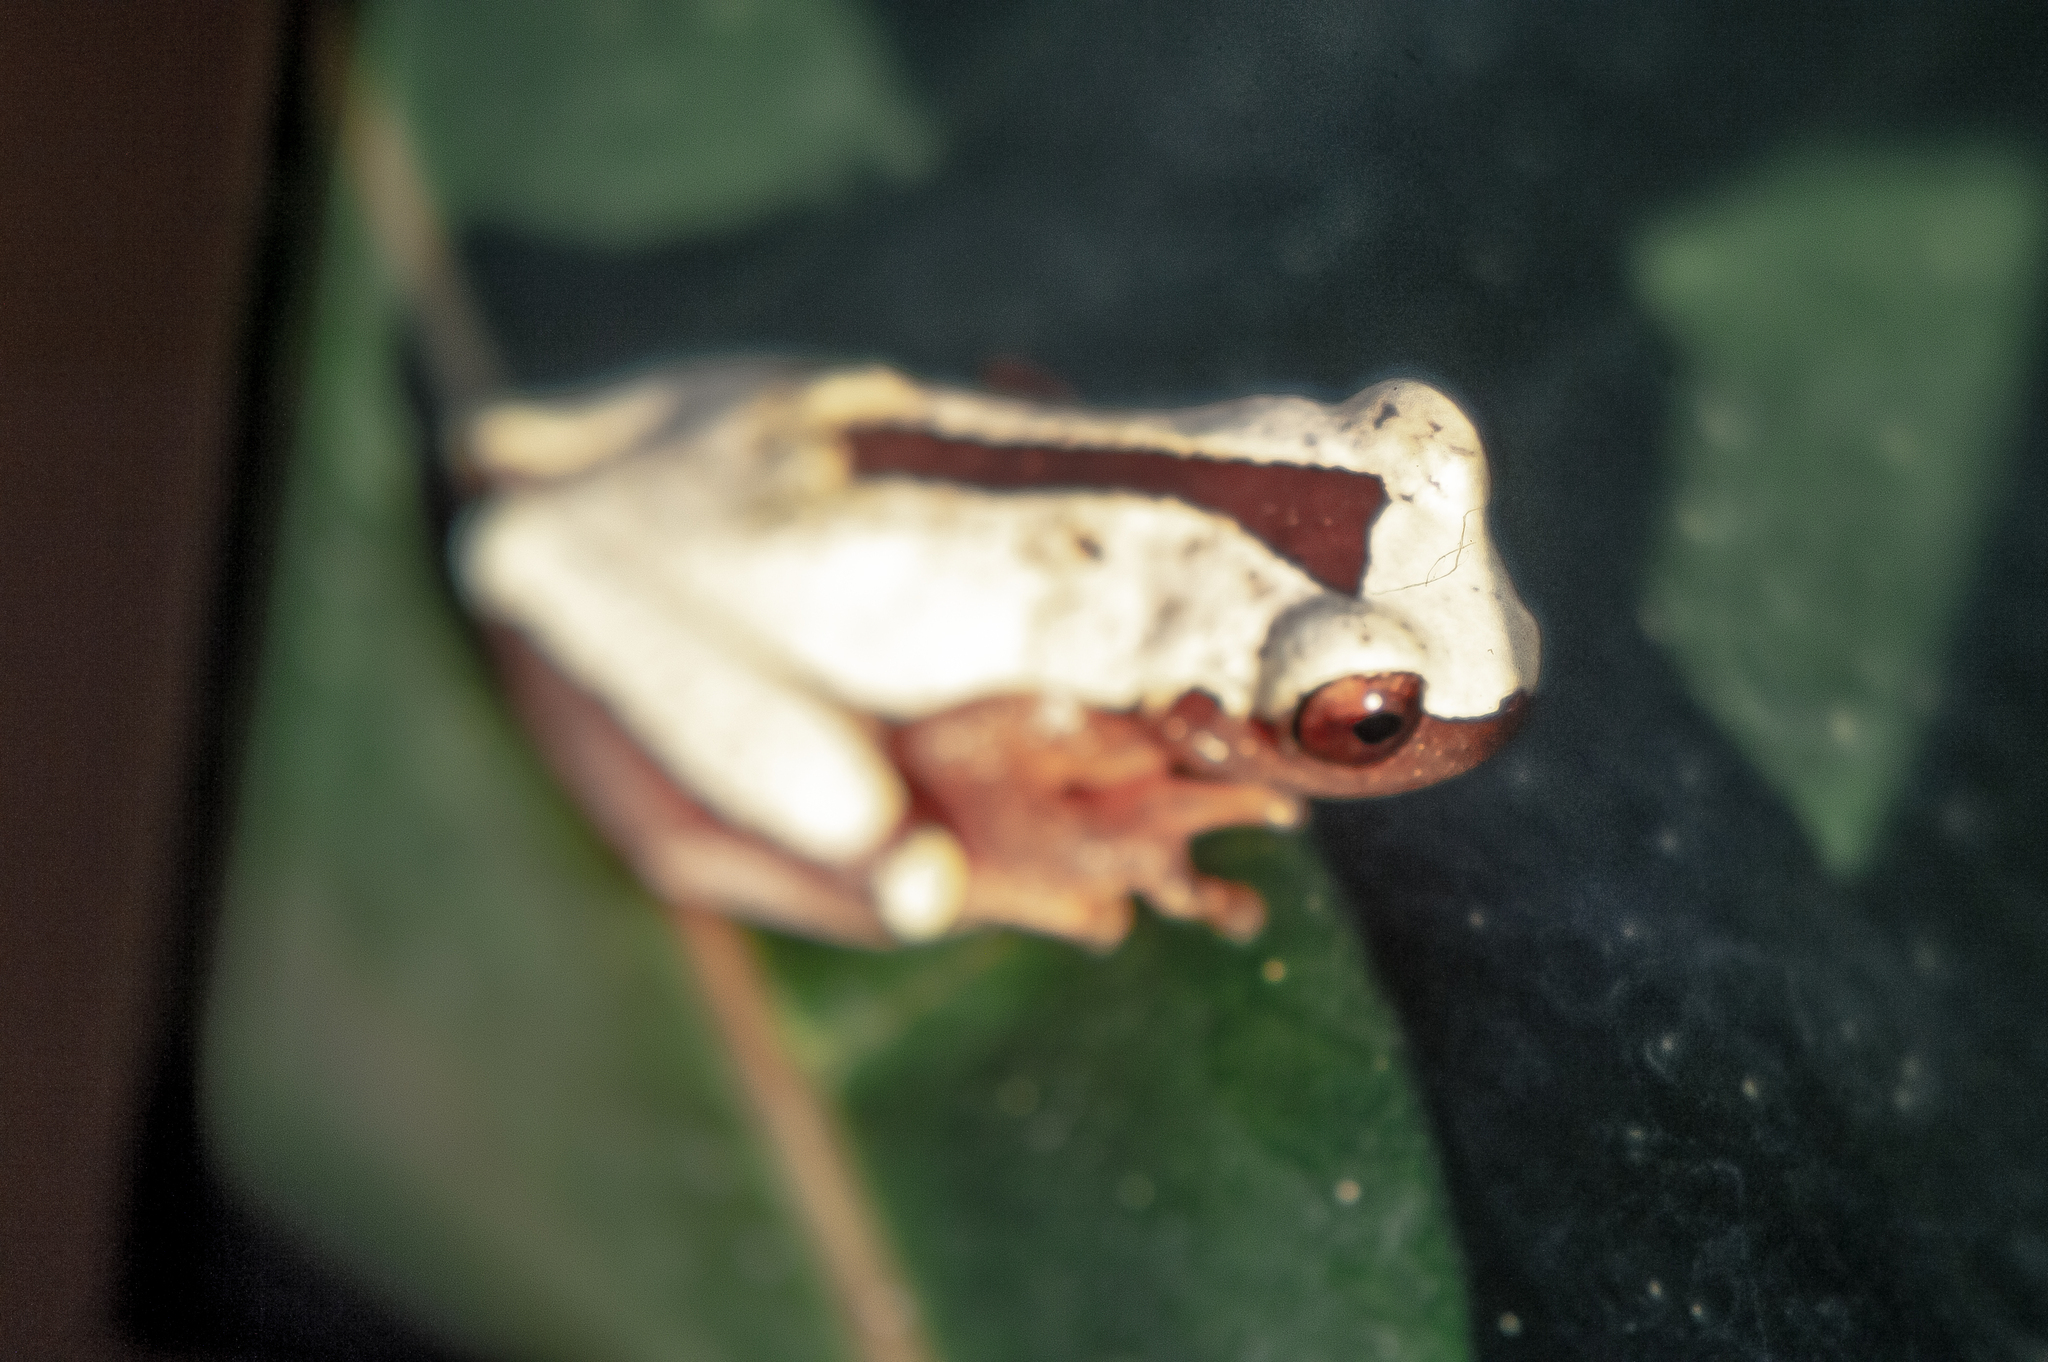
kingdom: Animalia
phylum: Chordata
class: Amphibia
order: Anura
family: Hylidae
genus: Dendropsophus
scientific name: Dendropsophus triangulum
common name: Triangle treefrog
